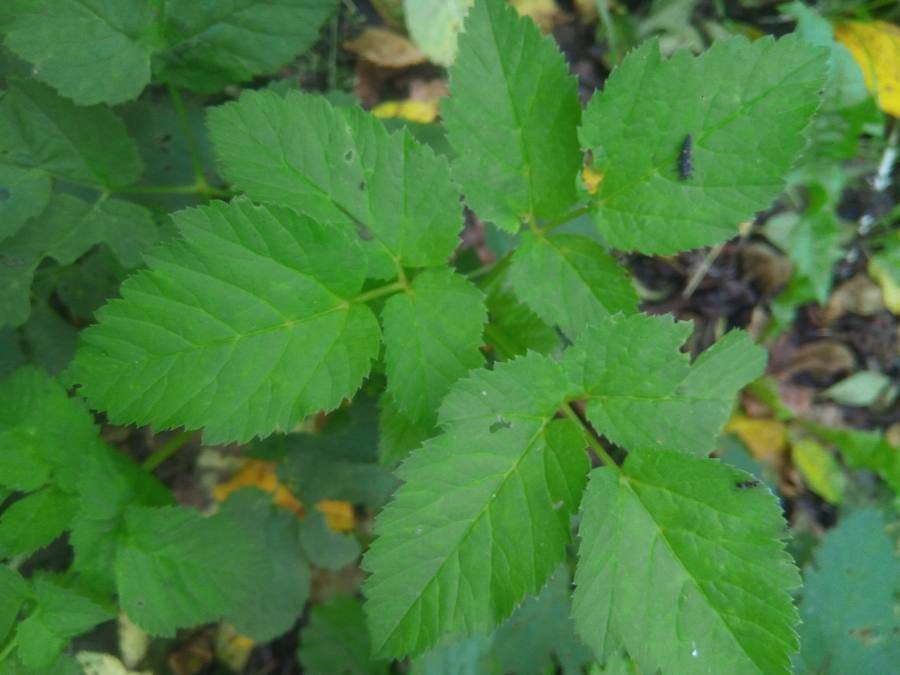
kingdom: Plantae
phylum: Tracheophyta
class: Magnoliopsida
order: Apiales
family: Apiaceae
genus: Aegopodium
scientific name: Aegopodium podagraria
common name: Ground-elder
